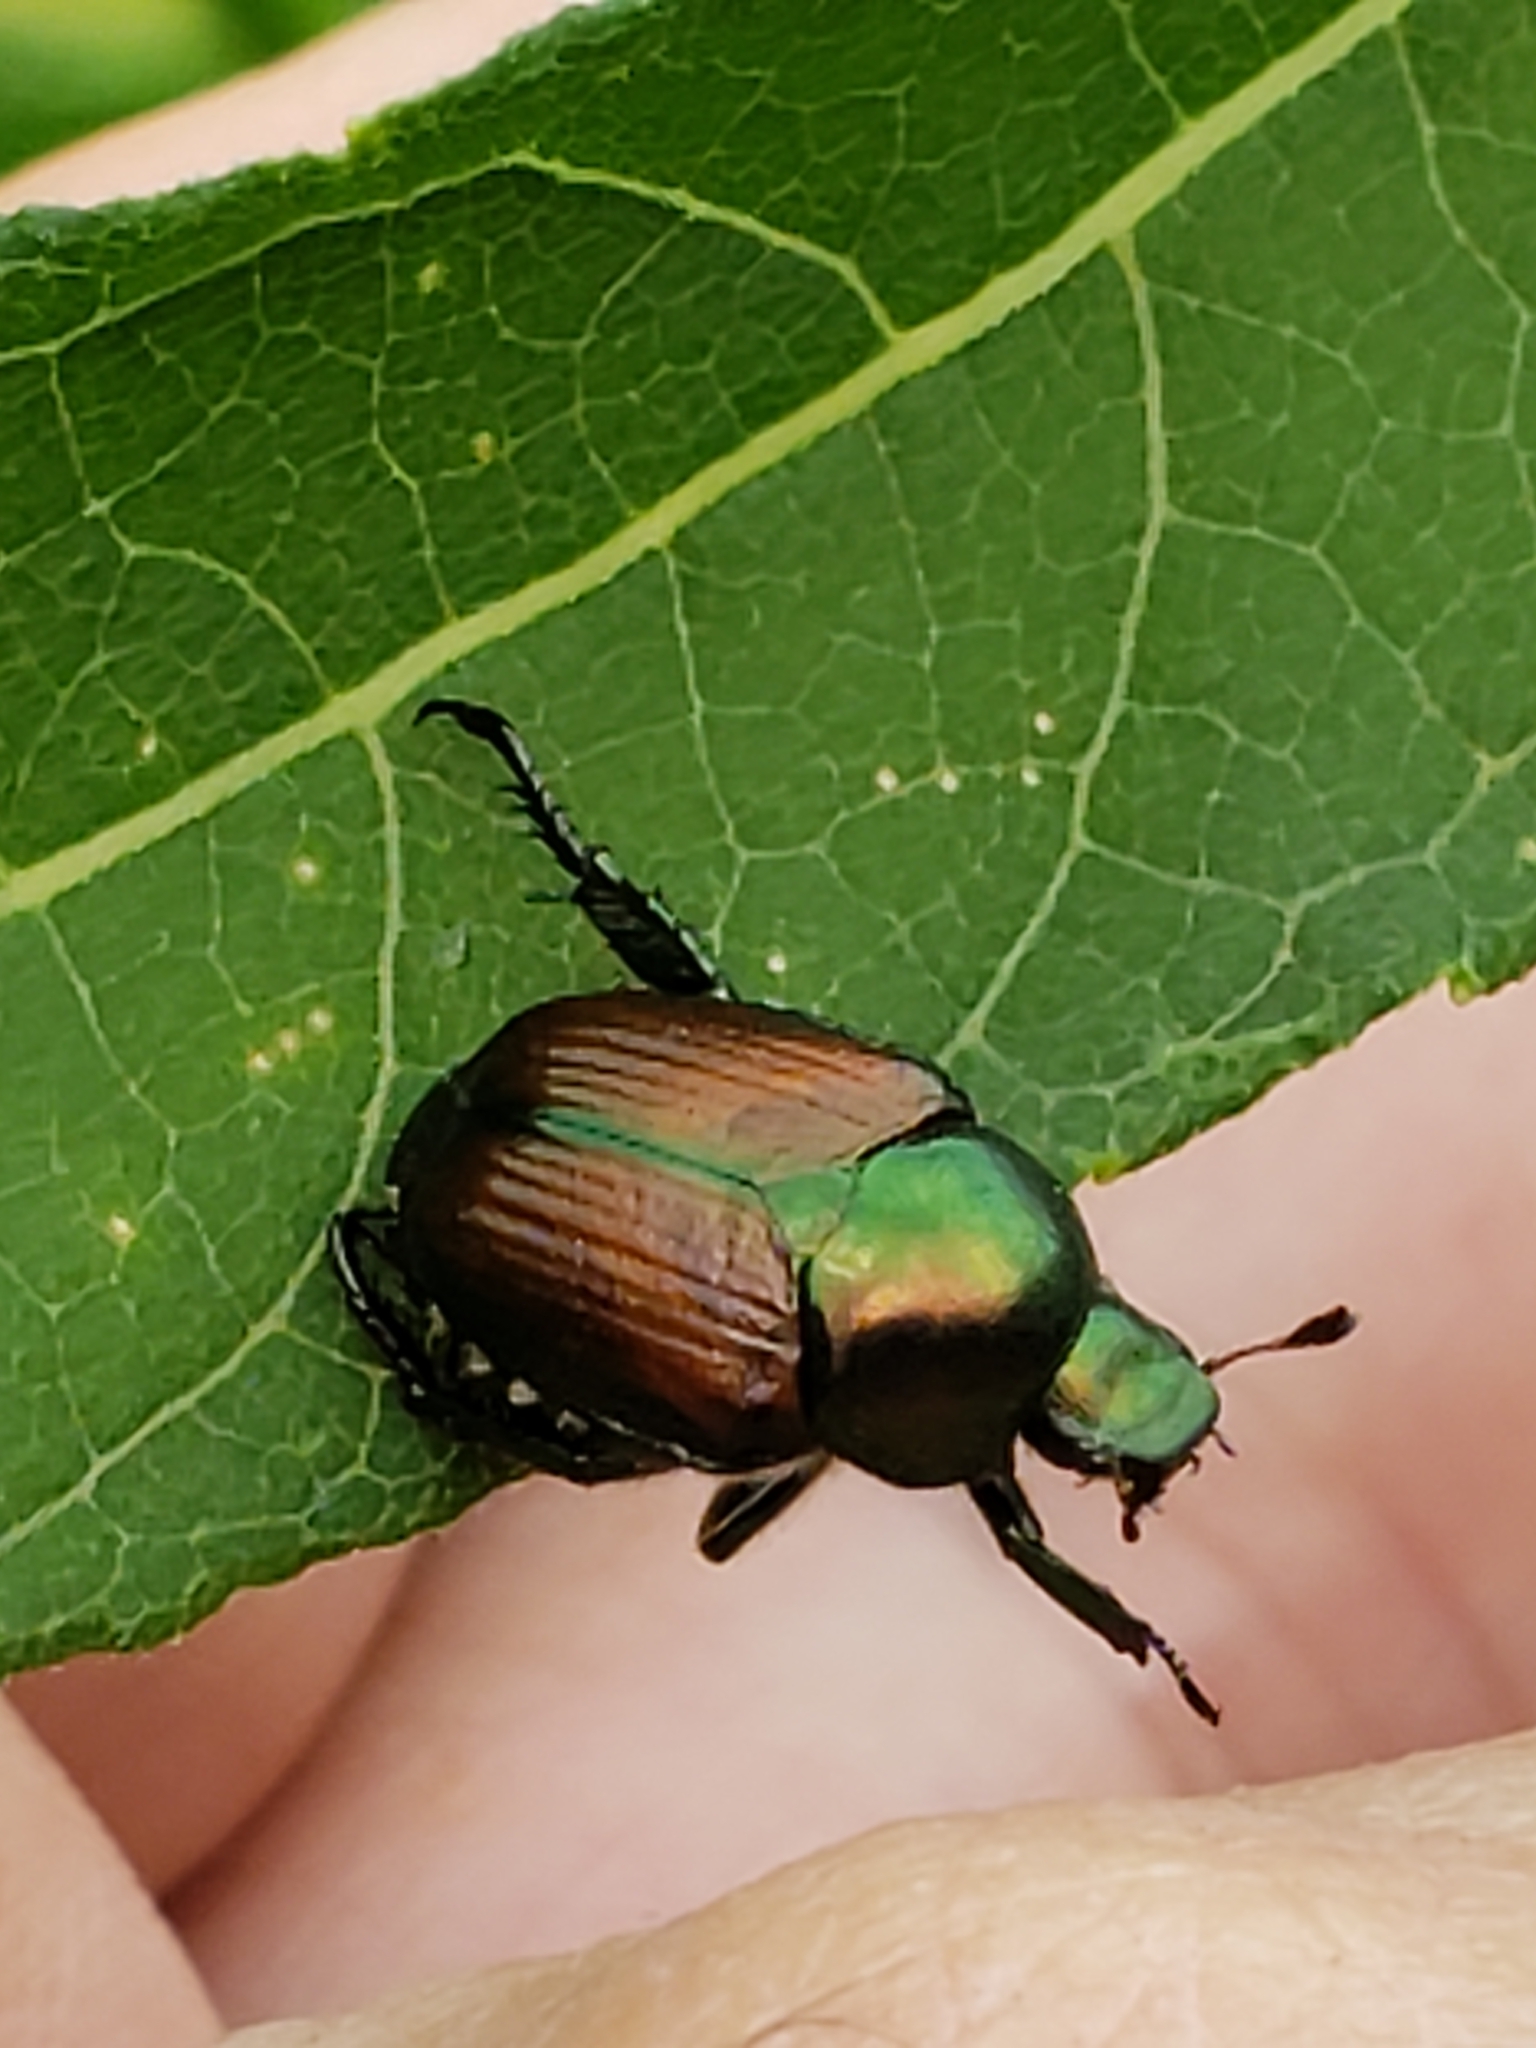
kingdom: Animalia
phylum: Arthropoda
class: Insecta
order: Coleoptera
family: Scarabaeidae
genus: Popillia
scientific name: Popillia japonica
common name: Japanese beetle
